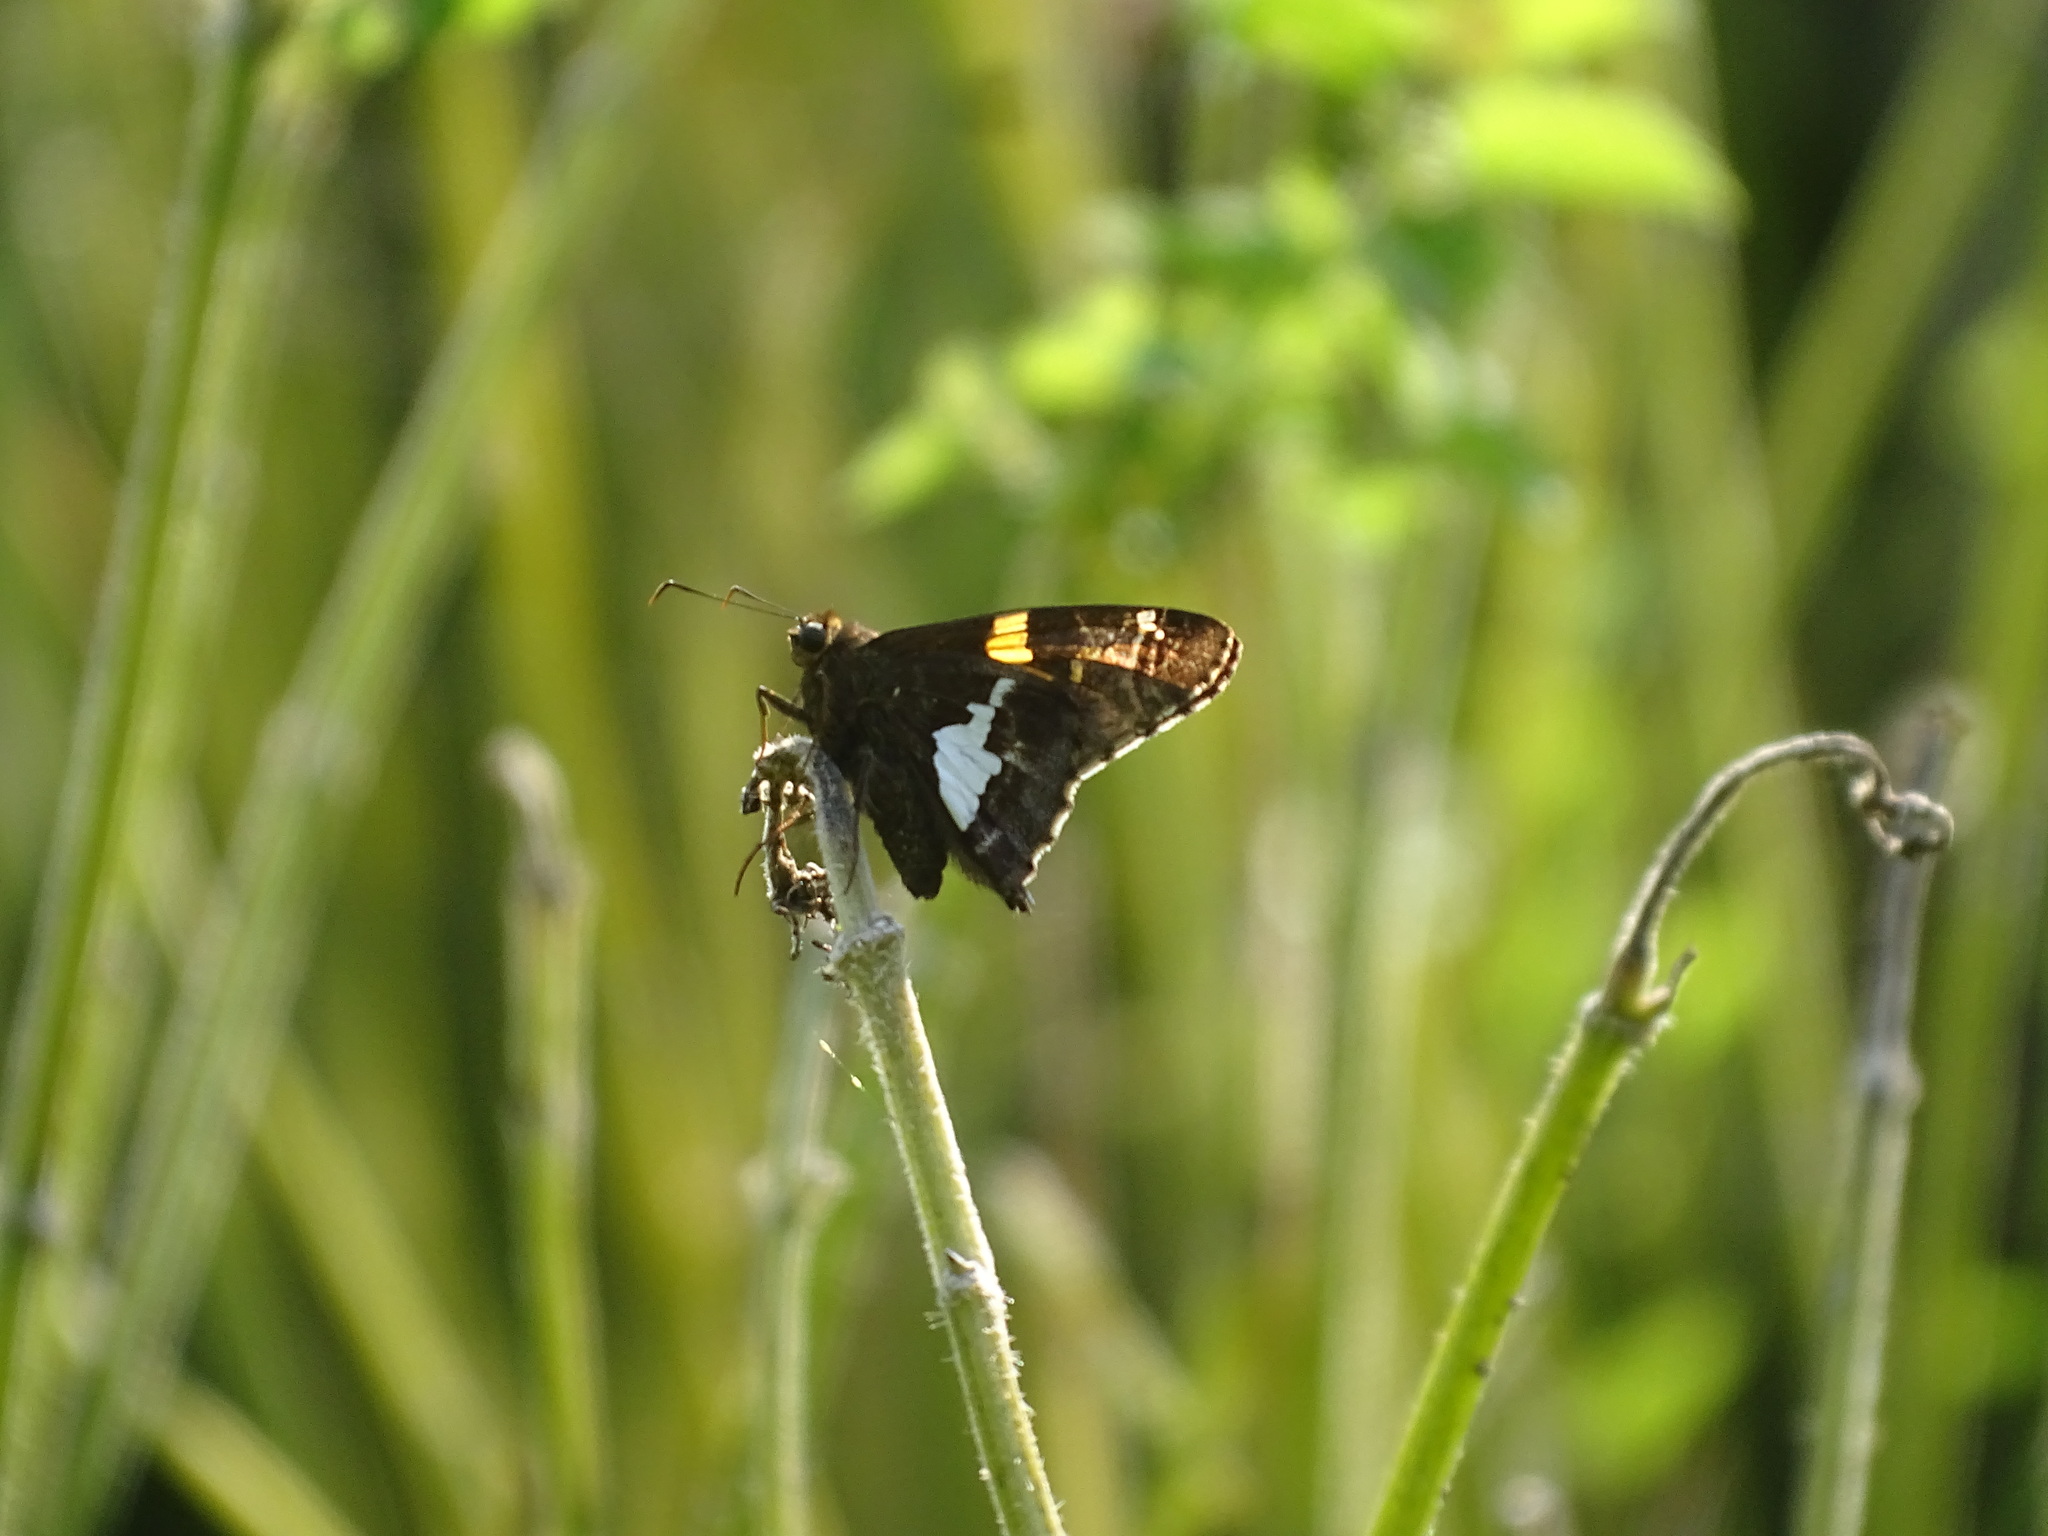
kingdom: Animalia
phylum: Arthropoda
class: Insecta
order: Lepidoptera
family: Hesperiidae
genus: Epargyreus
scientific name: Epargyreus clarus
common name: Silver-spotted skipper
